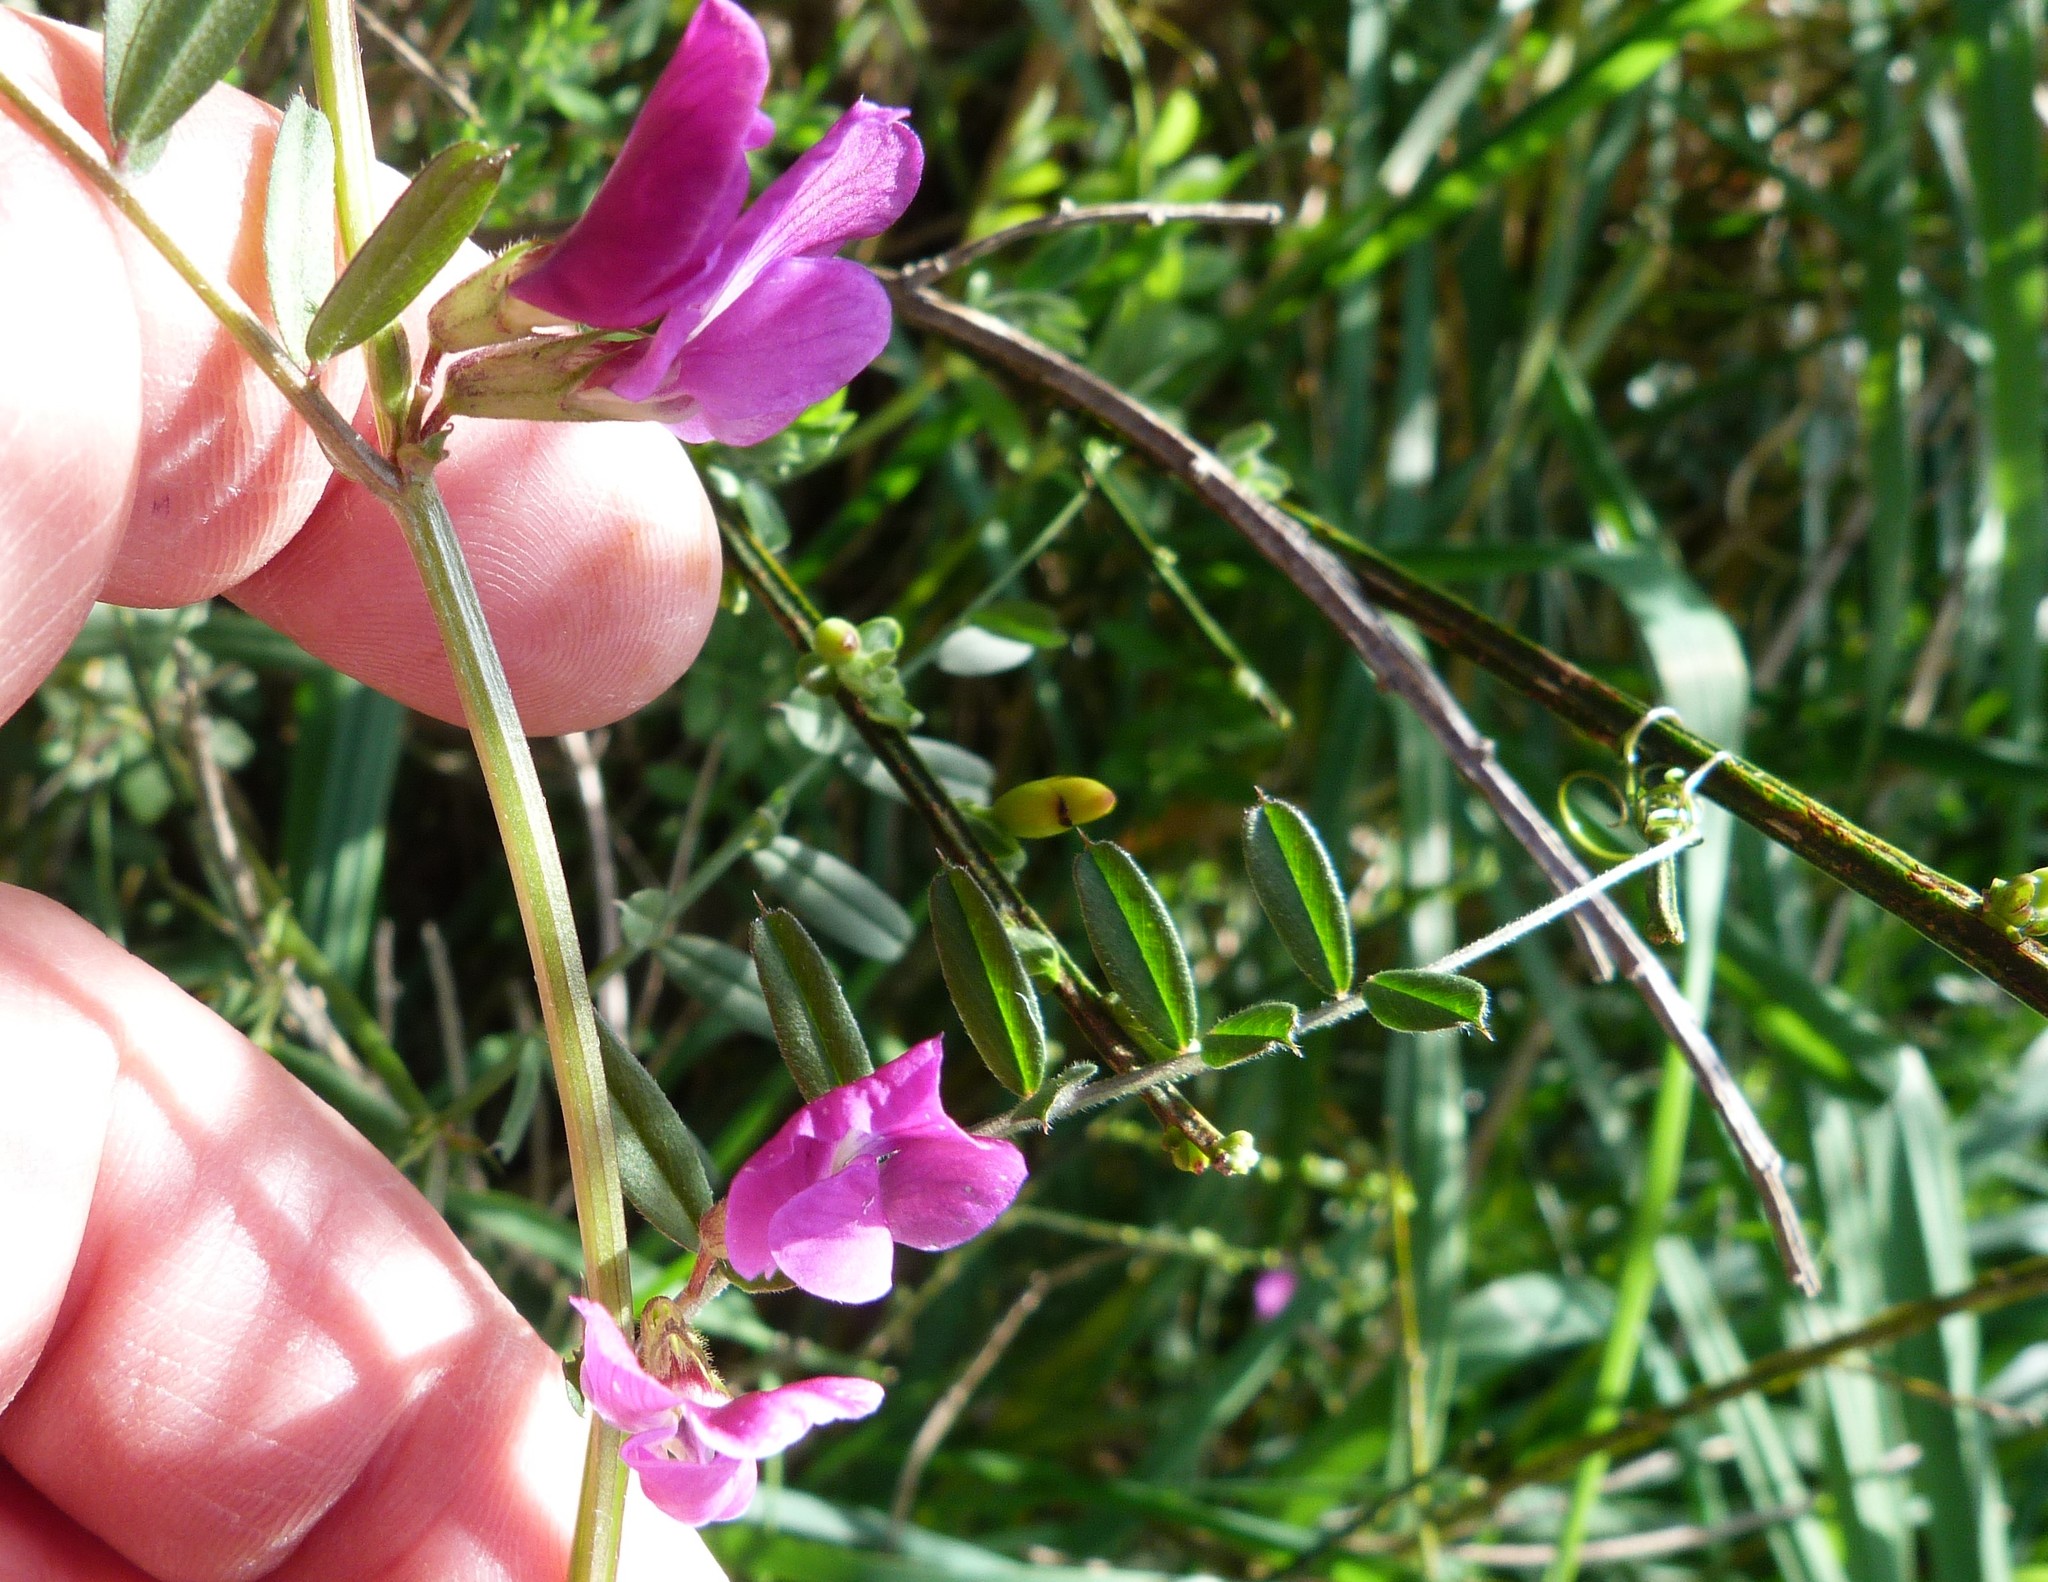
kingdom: Plantae
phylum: Tracheophyta
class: Magnoliopsida
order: Fabales
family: Fabaceae
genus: Vicia
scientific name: Vicia sativa
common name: Garden vetch
